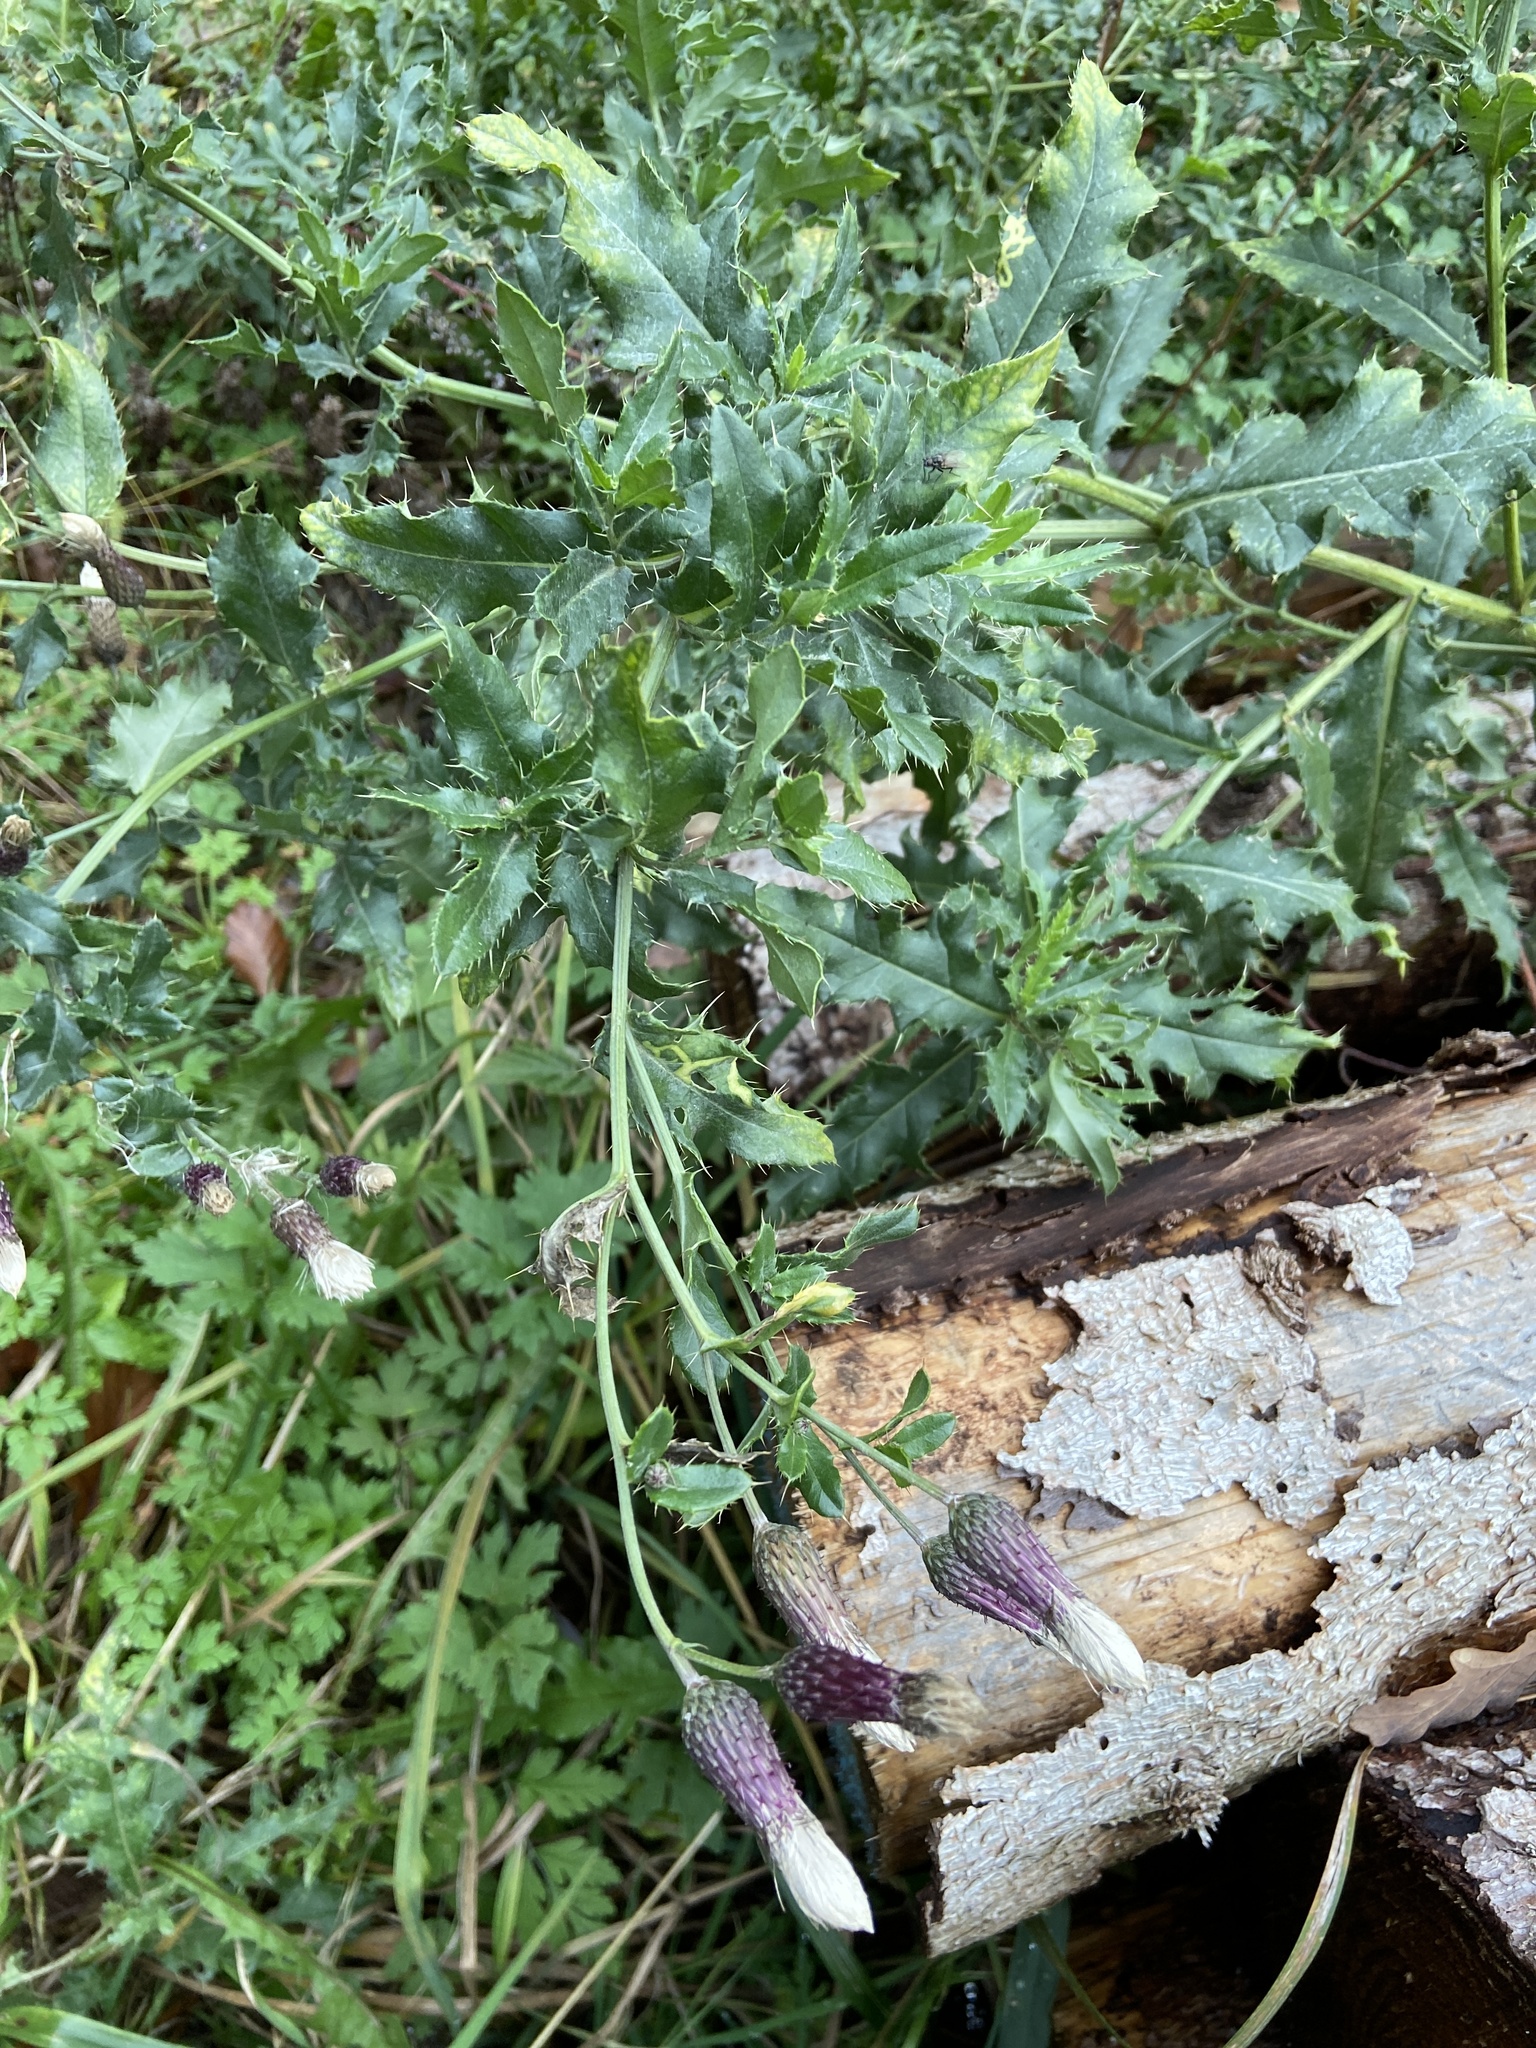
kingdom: Plantae
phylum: Tracheophyta
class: Magnoliopsida
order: Asterales
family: Asteraceae
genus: Cirsium
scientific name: Cirsium arvense
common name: Creeping thistle
